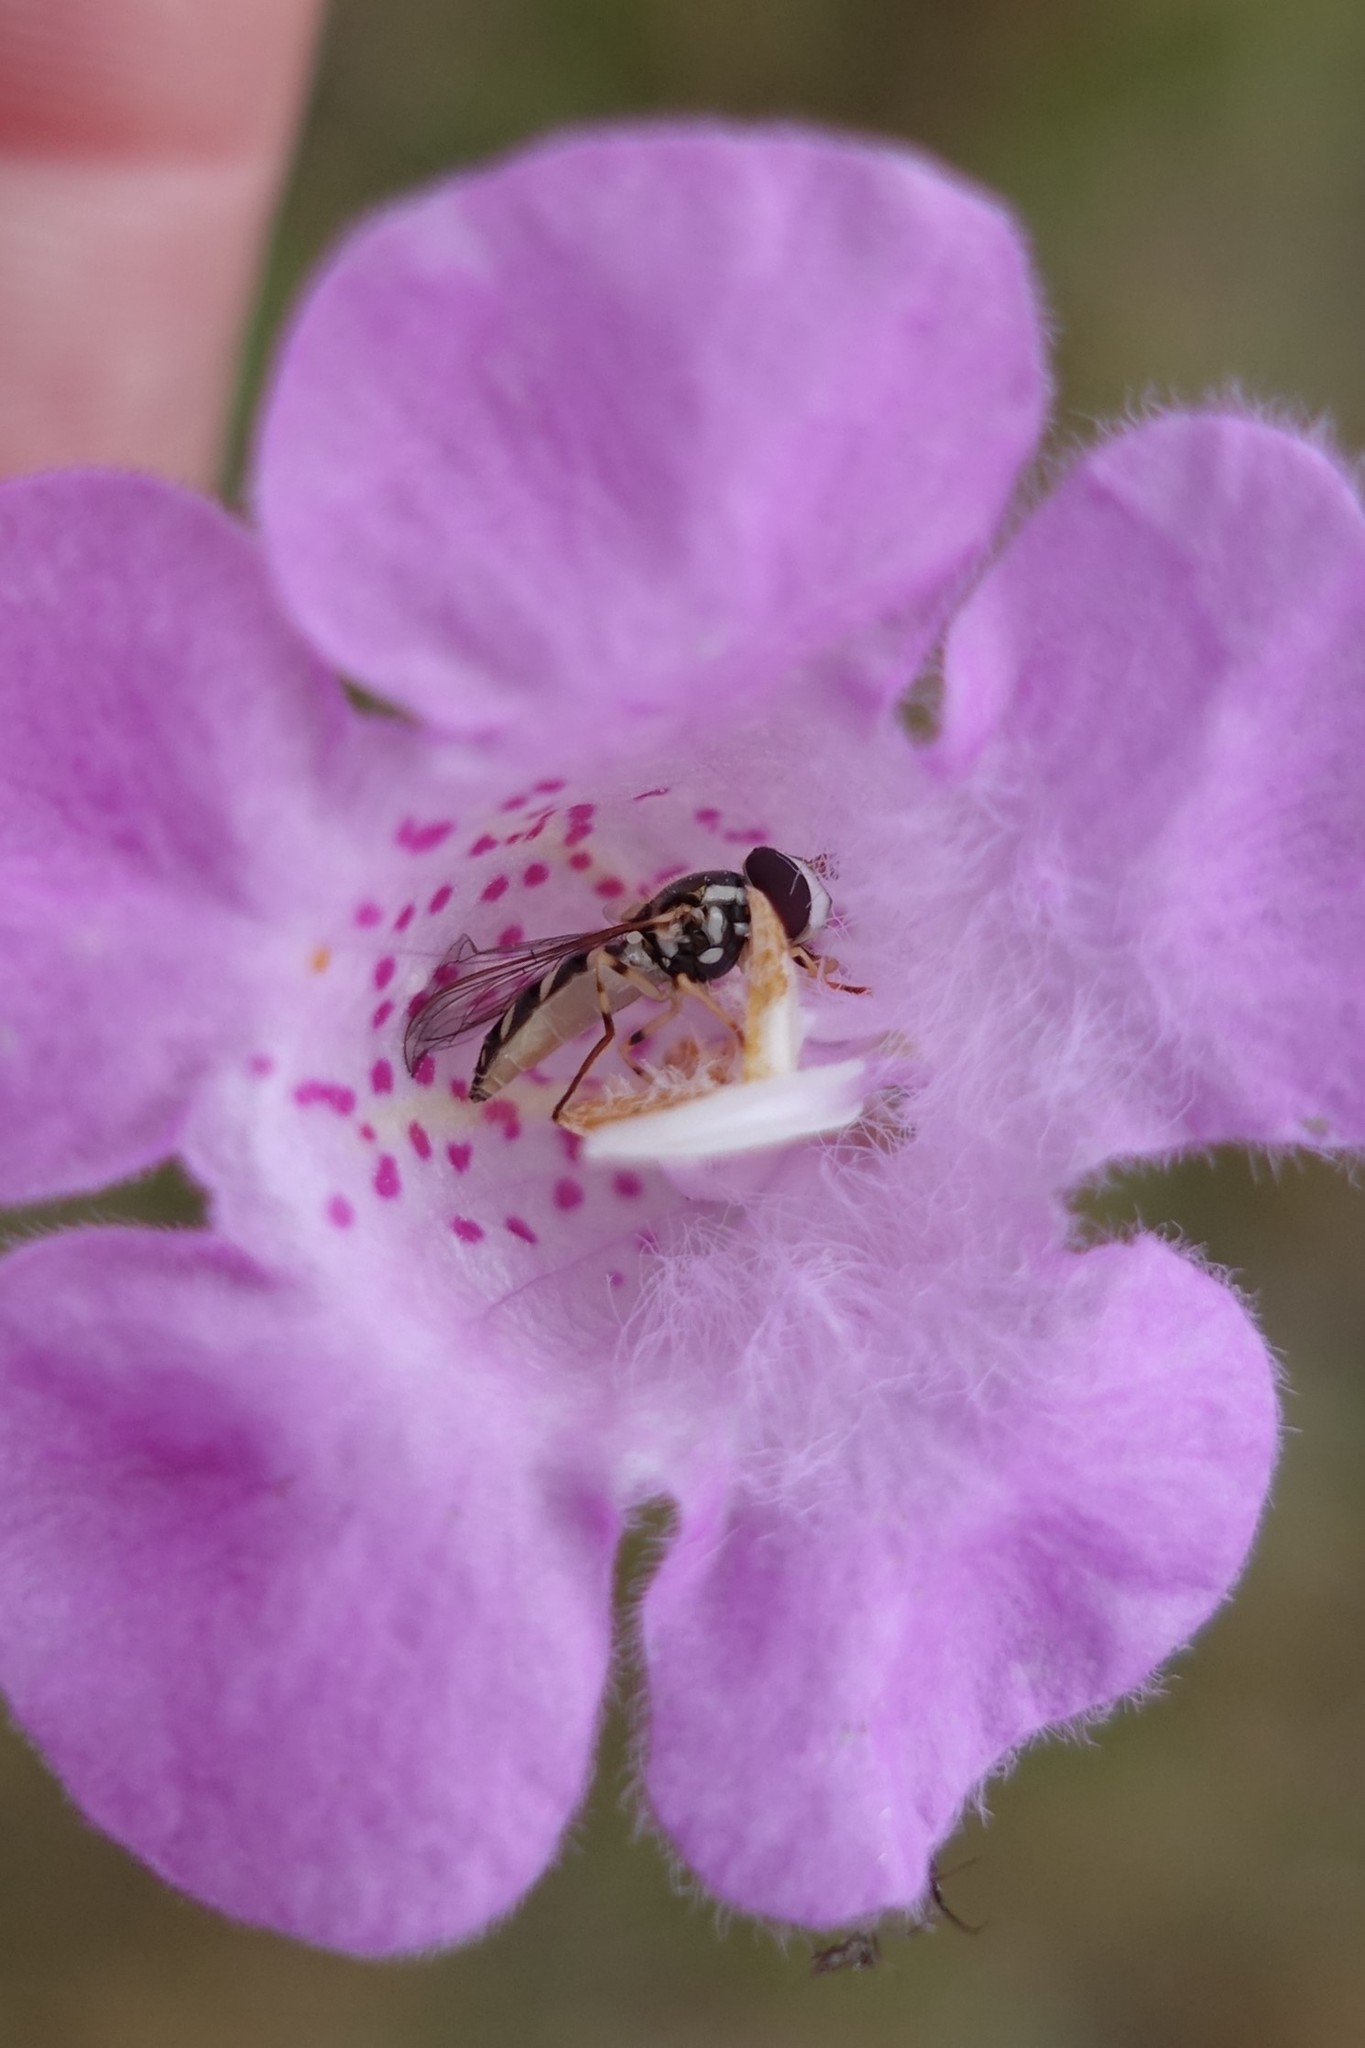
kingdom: Animalia
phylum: Arthropoda
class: Insecta
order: Diptera
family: Syrphidae
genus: Allograpta
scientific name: Allograpta exotica
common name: Syrphid fly
